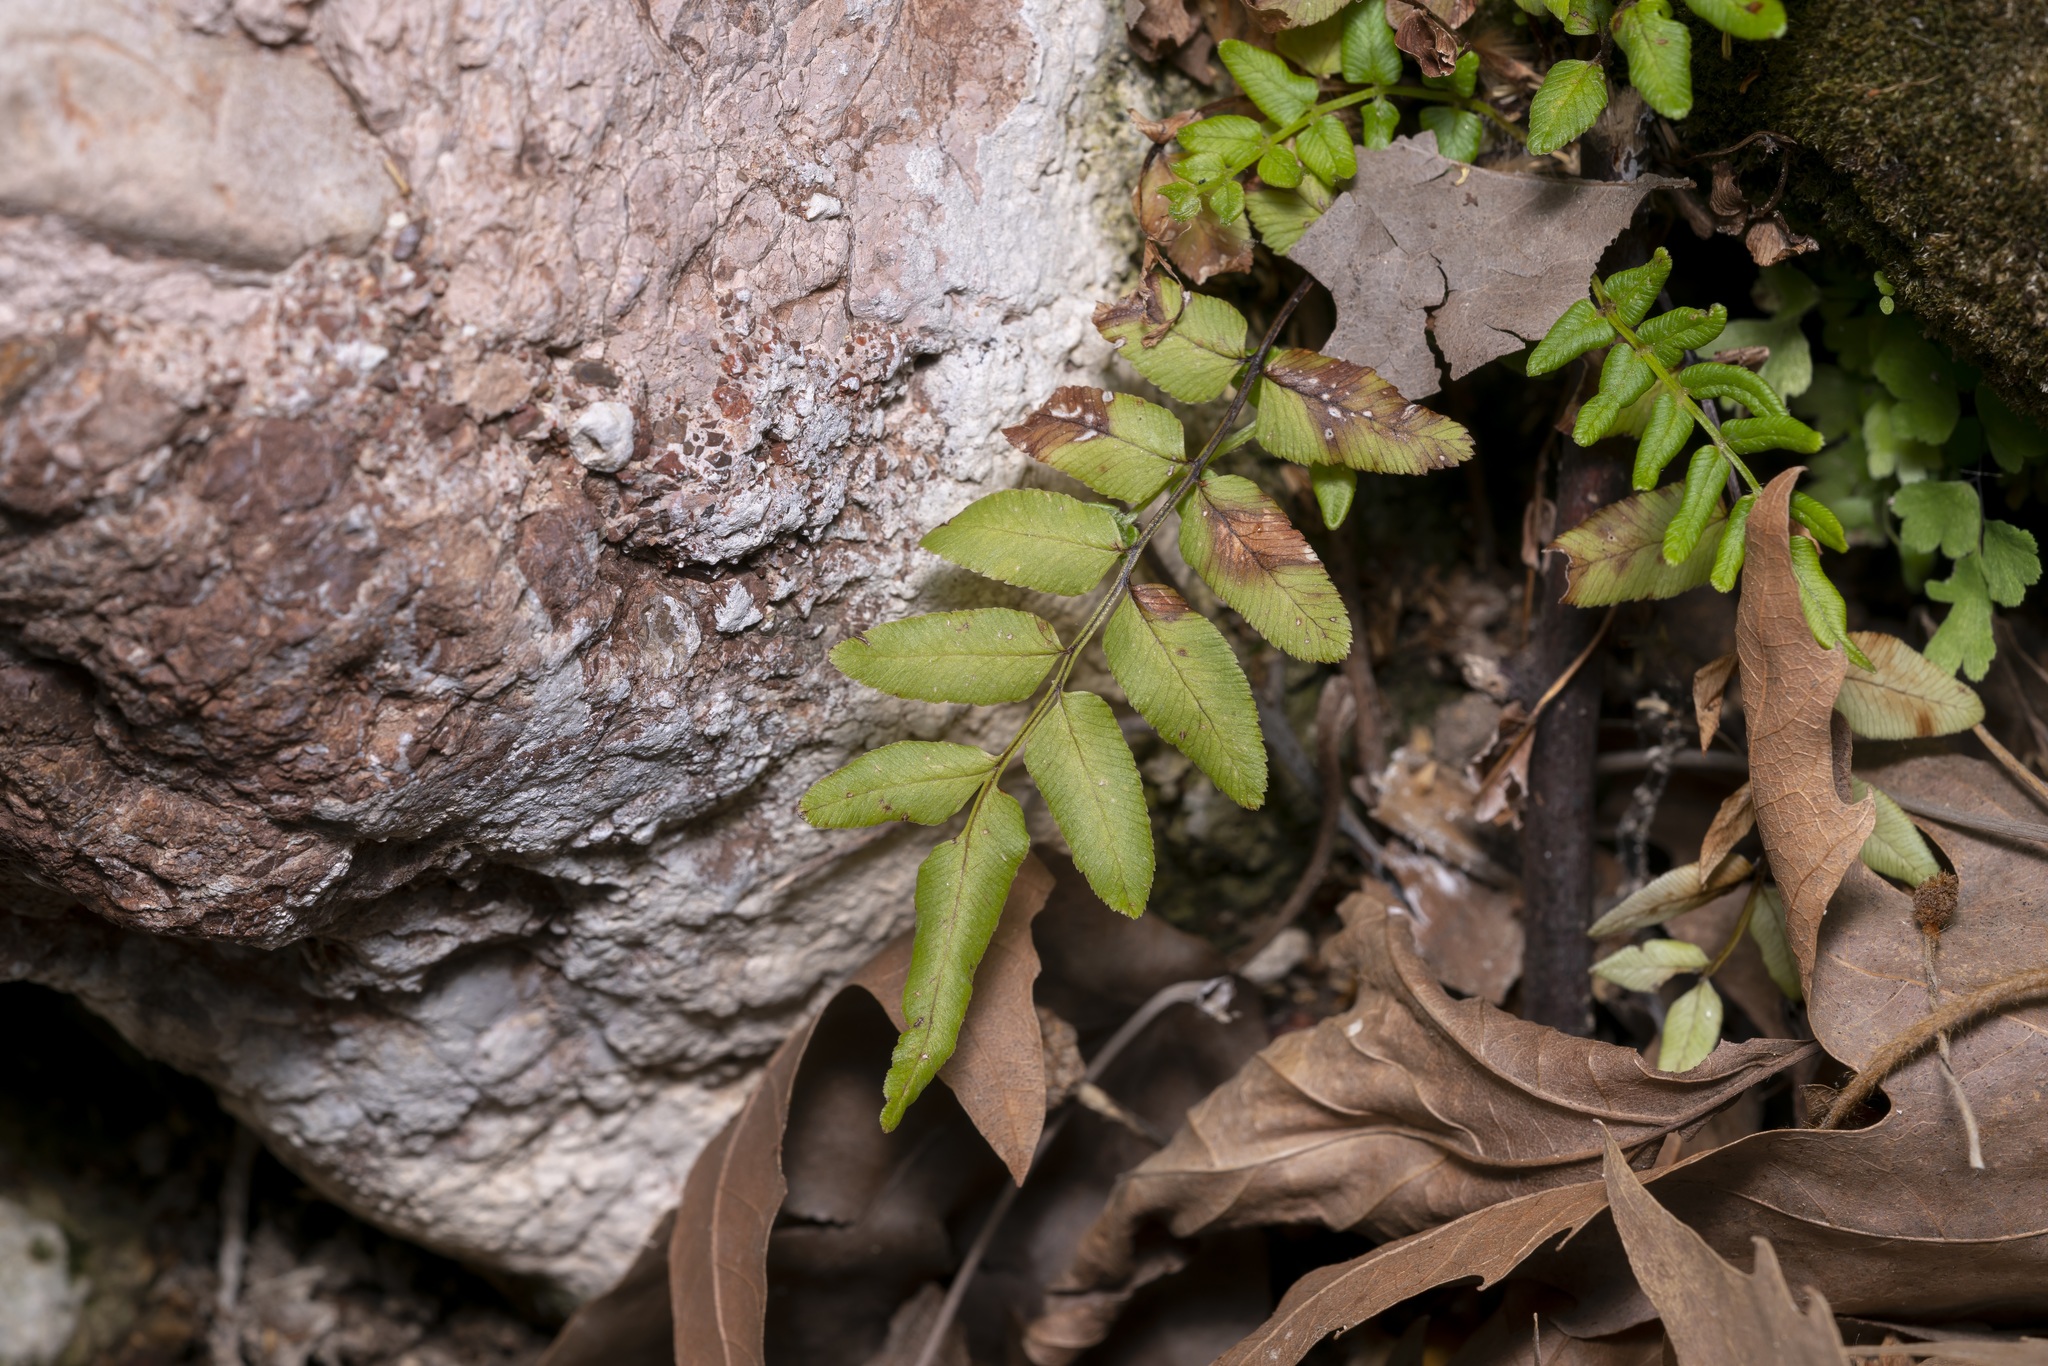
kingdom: Plantae
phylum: Tracheophyta
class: Polypodiopsida
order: Polypodiales
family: Pteridaceae
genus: Pteris
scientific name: Pteris vittata
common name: Ladder brake
